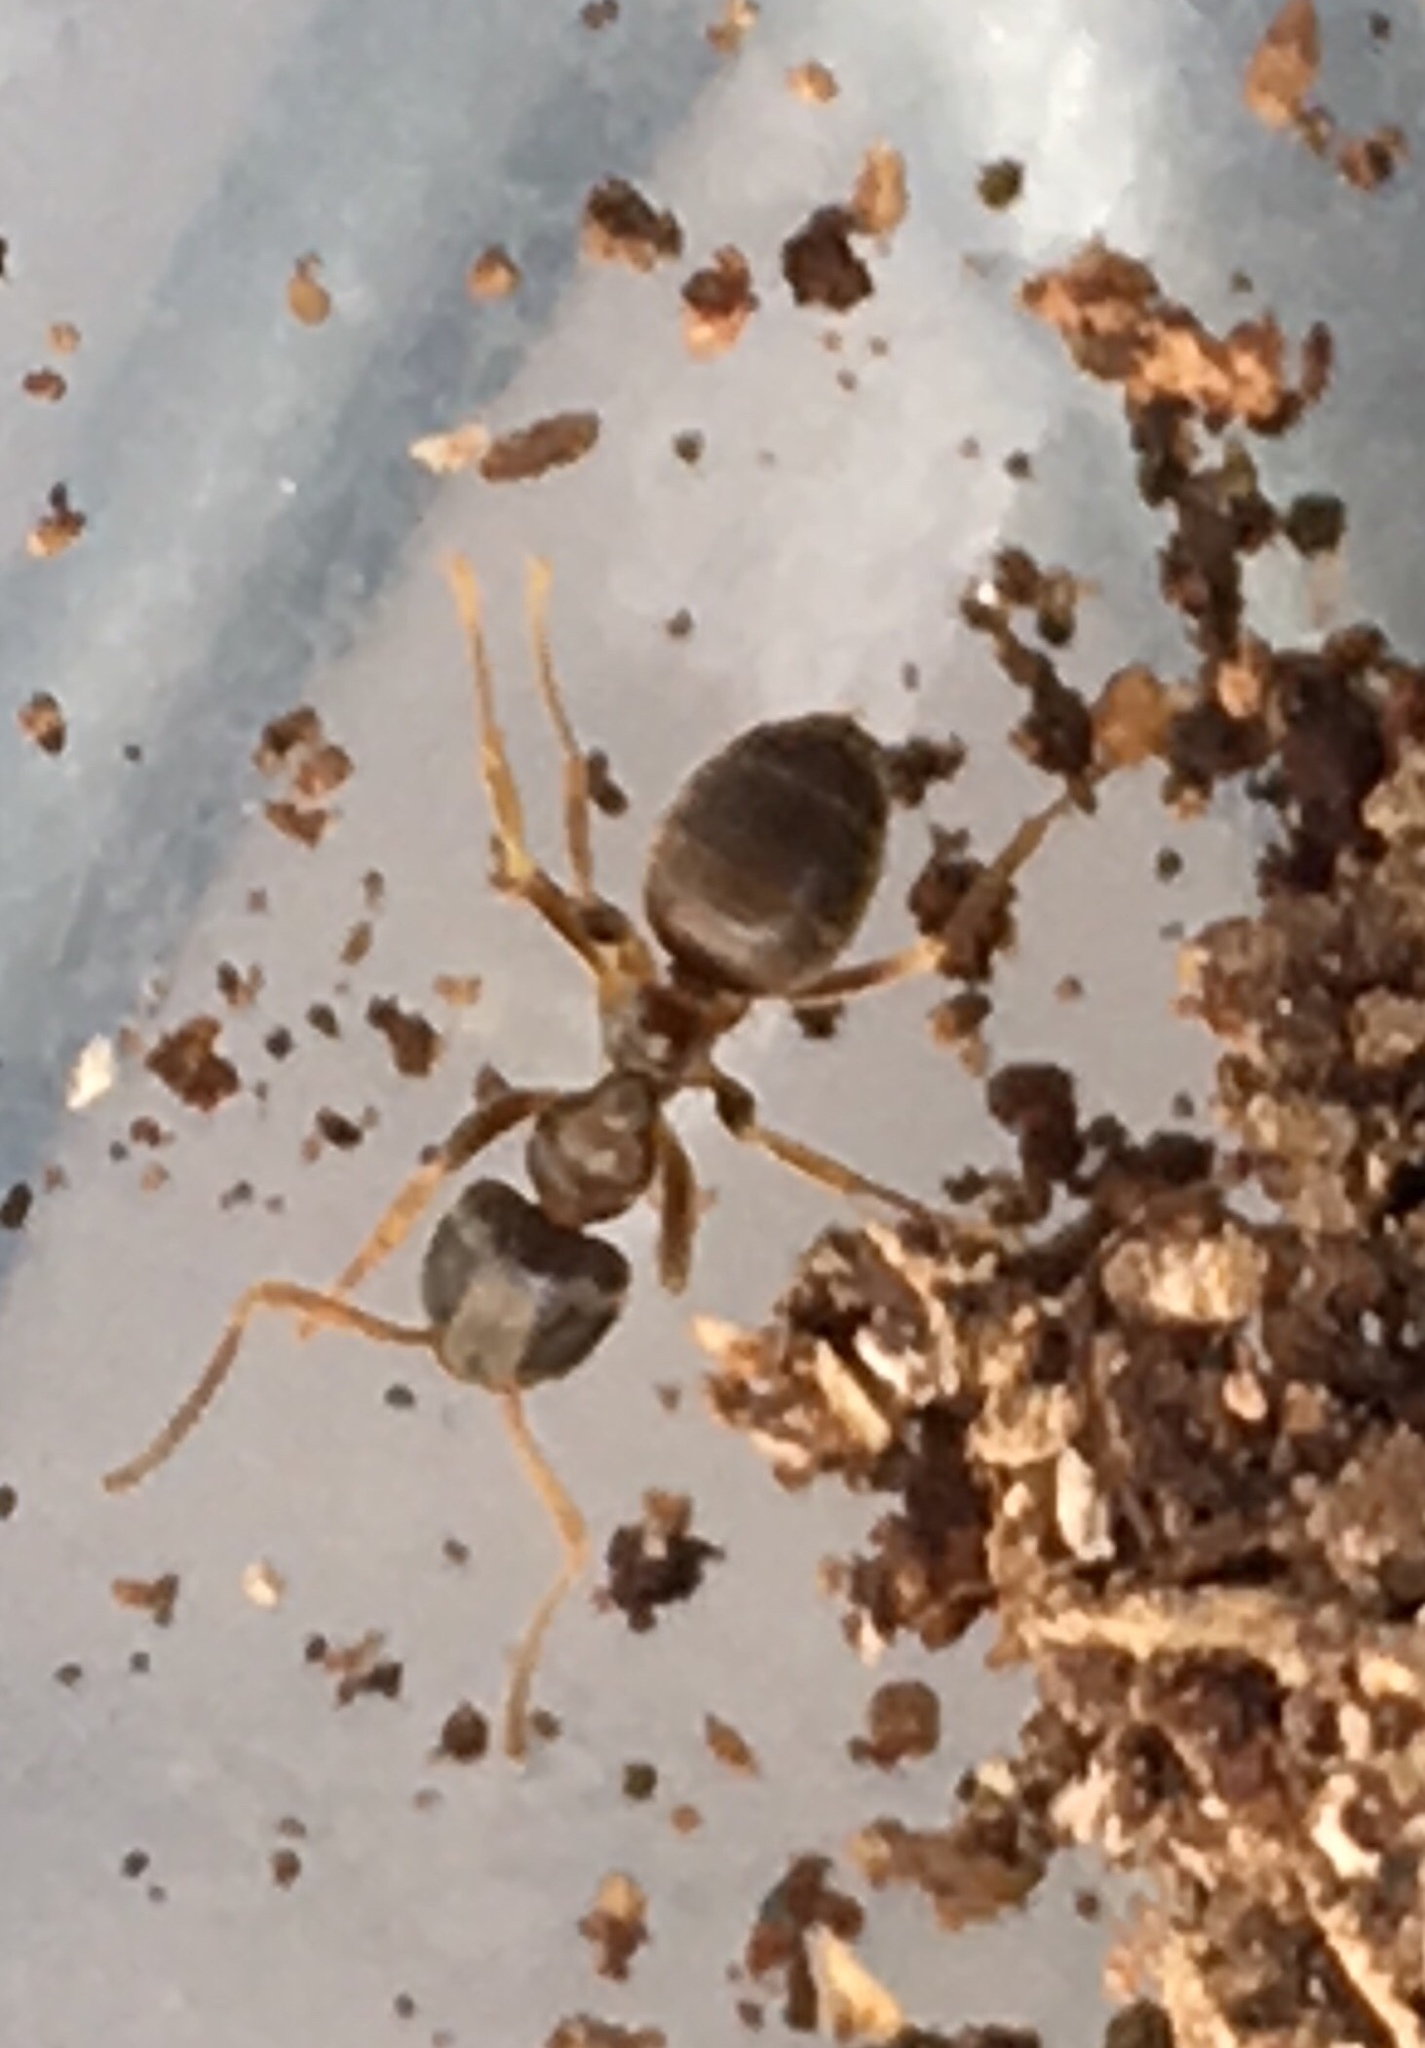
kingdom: Animalia
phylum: Arthropoda
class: Insecta
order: Hymenoptera
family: Formicidae
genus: Lasius
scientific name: Lasius americanus
